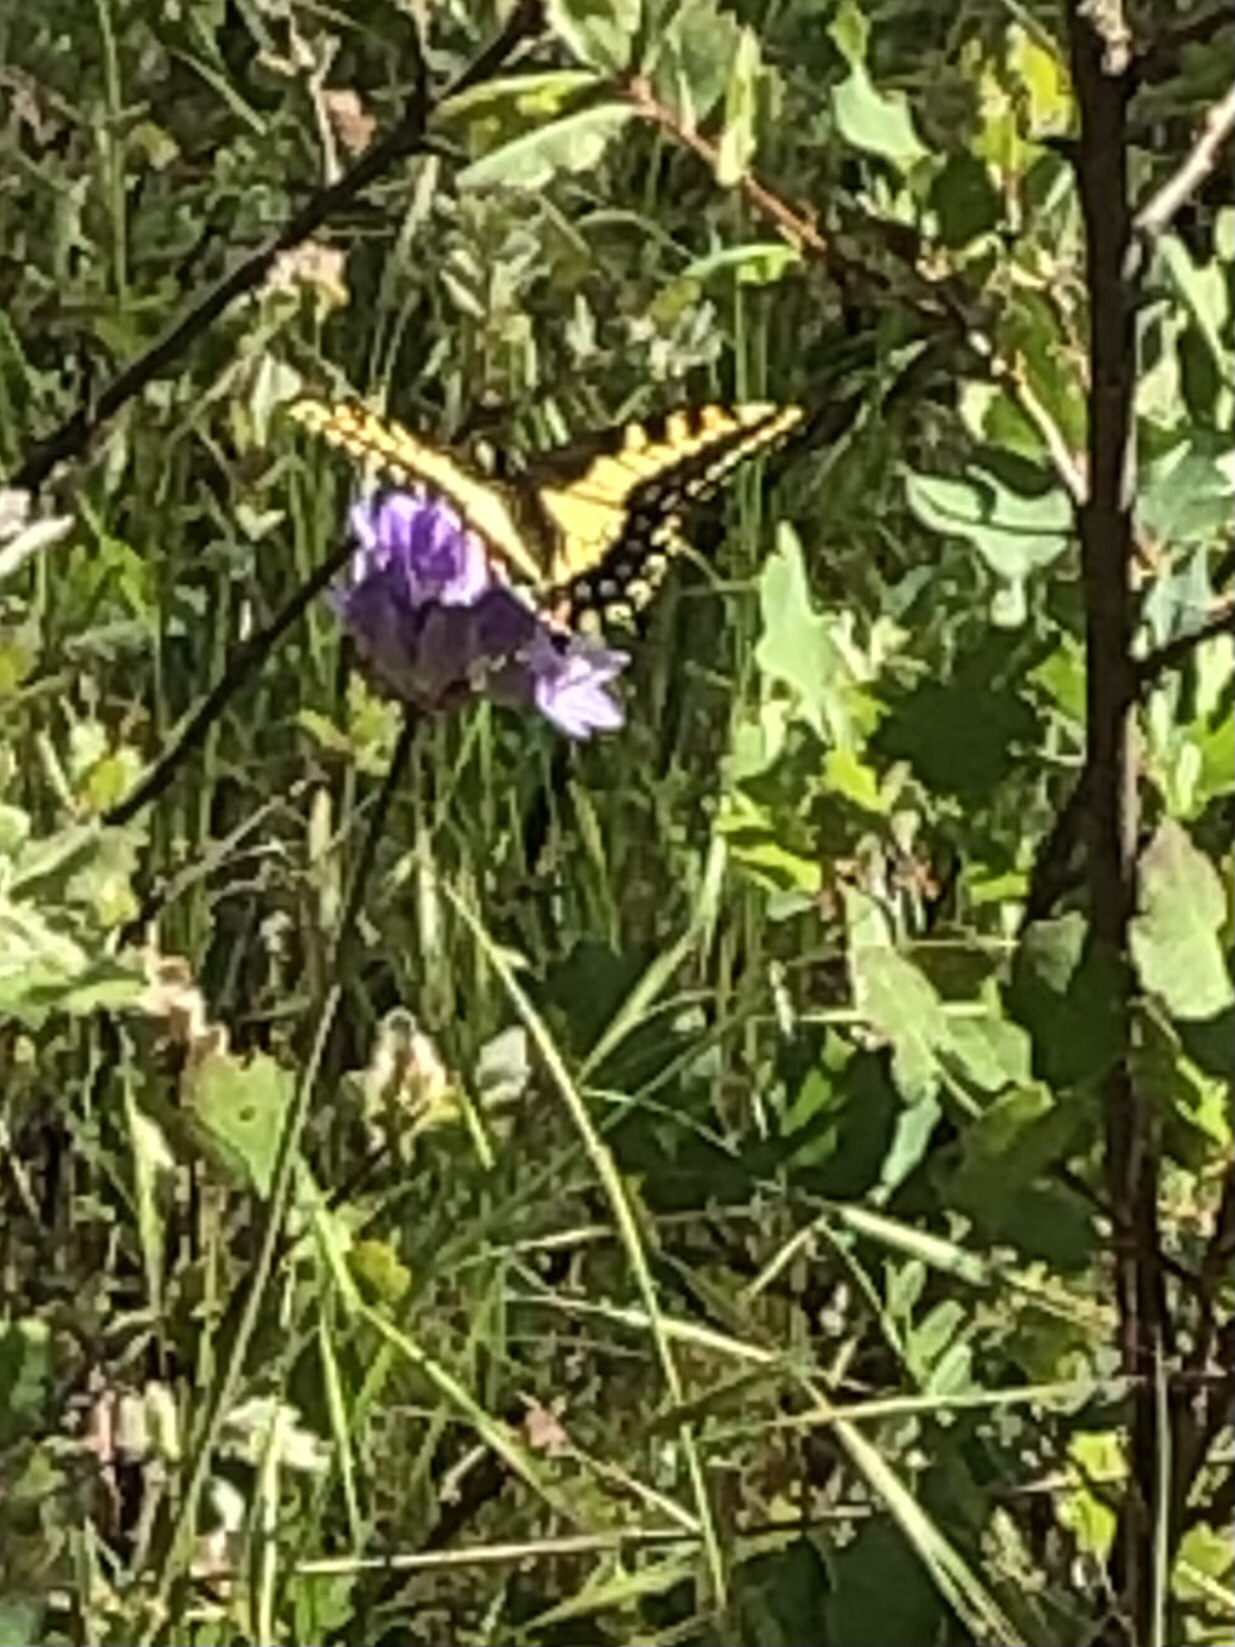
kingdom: Animalia
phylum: Arthropoda
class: Insecta
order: Lepidoptera
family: Papilionidae
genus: Papilio
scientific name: Papilio zelicaon
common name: Anise swallowtail
